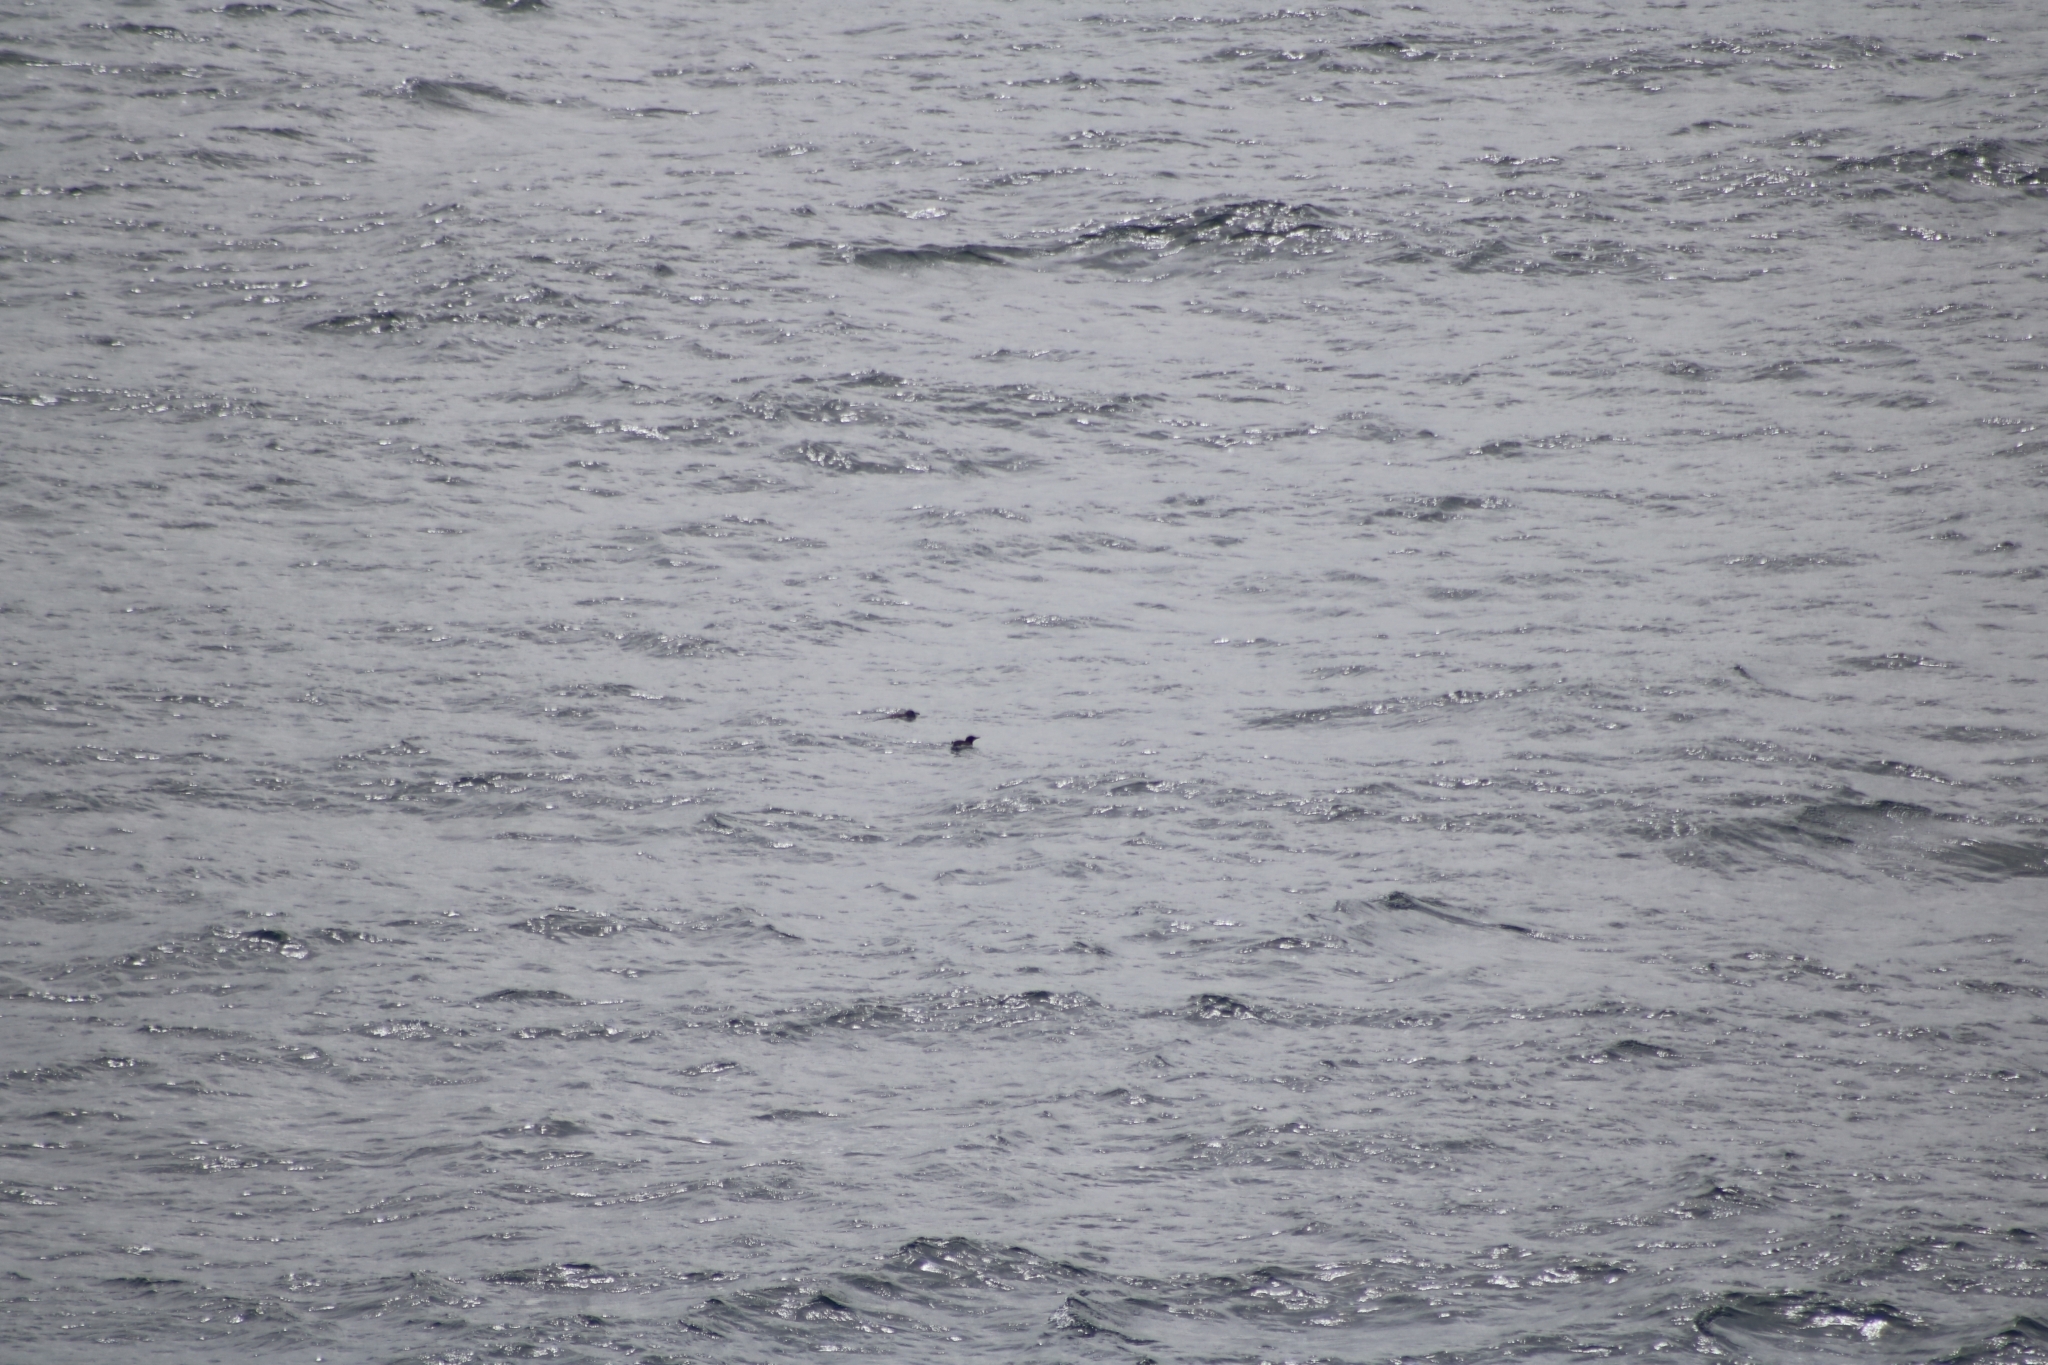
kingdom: Animalia
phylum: Chordata
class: Aves
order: Charadriiformes
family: Alcidae
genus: Uria
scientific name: Uria aalge
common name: Common murre
